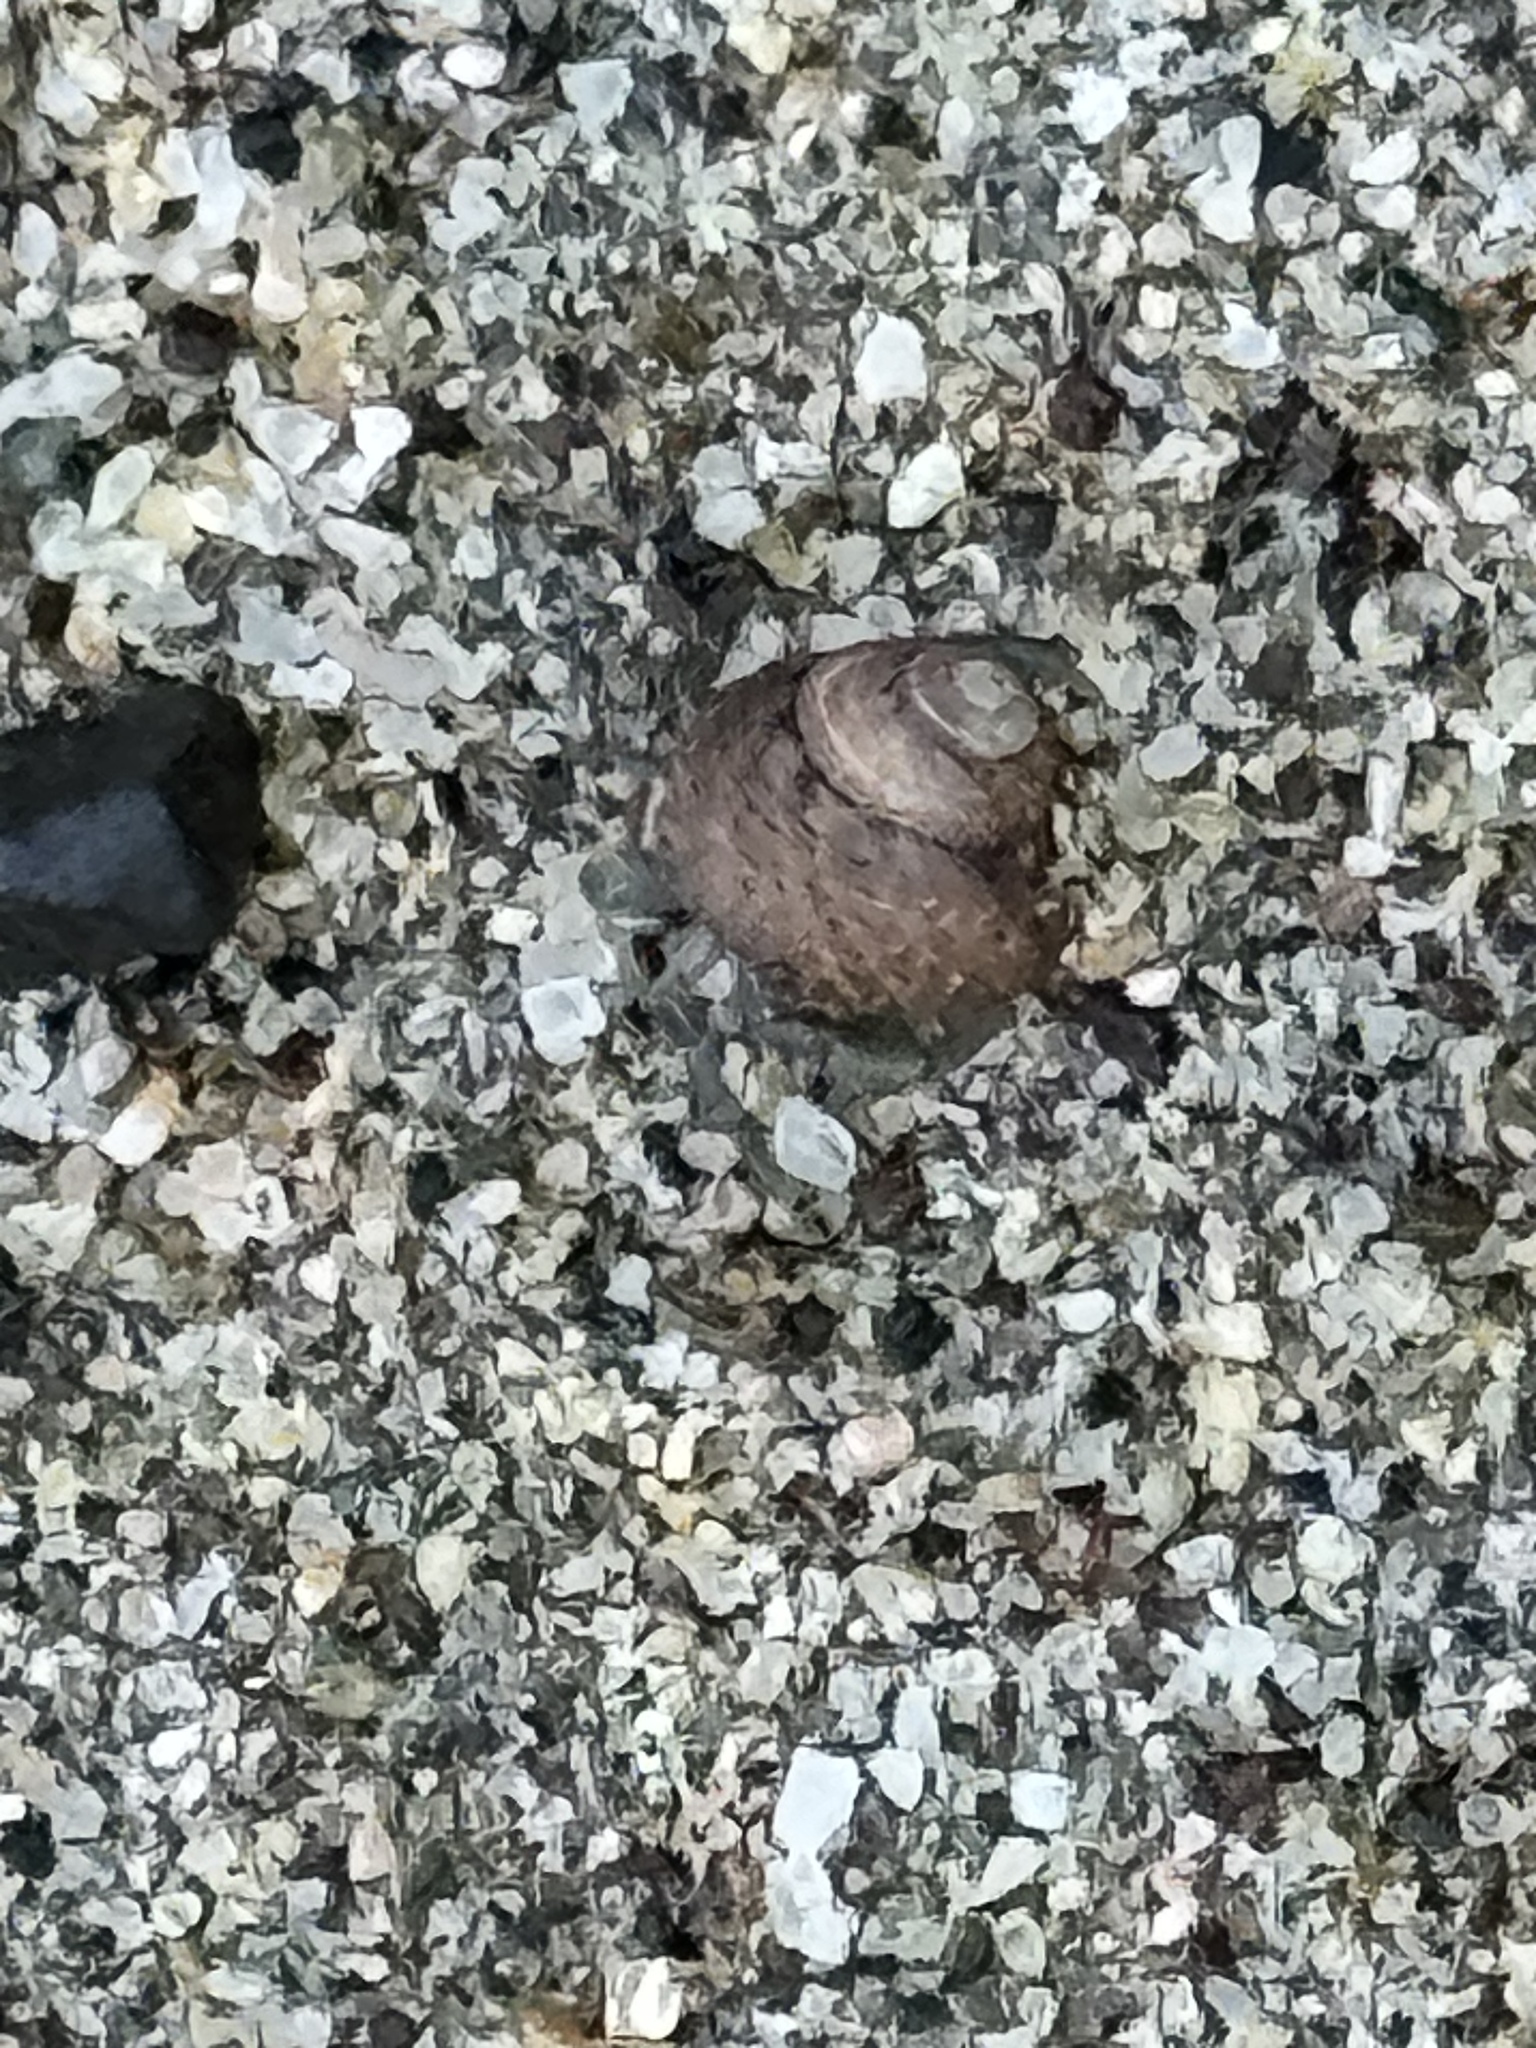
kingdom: Animalia
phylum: Arthropoda
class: Malacostraca
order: Decapoda
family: Coenobitidae
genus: Coenobita
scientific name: Coenobita compressus
